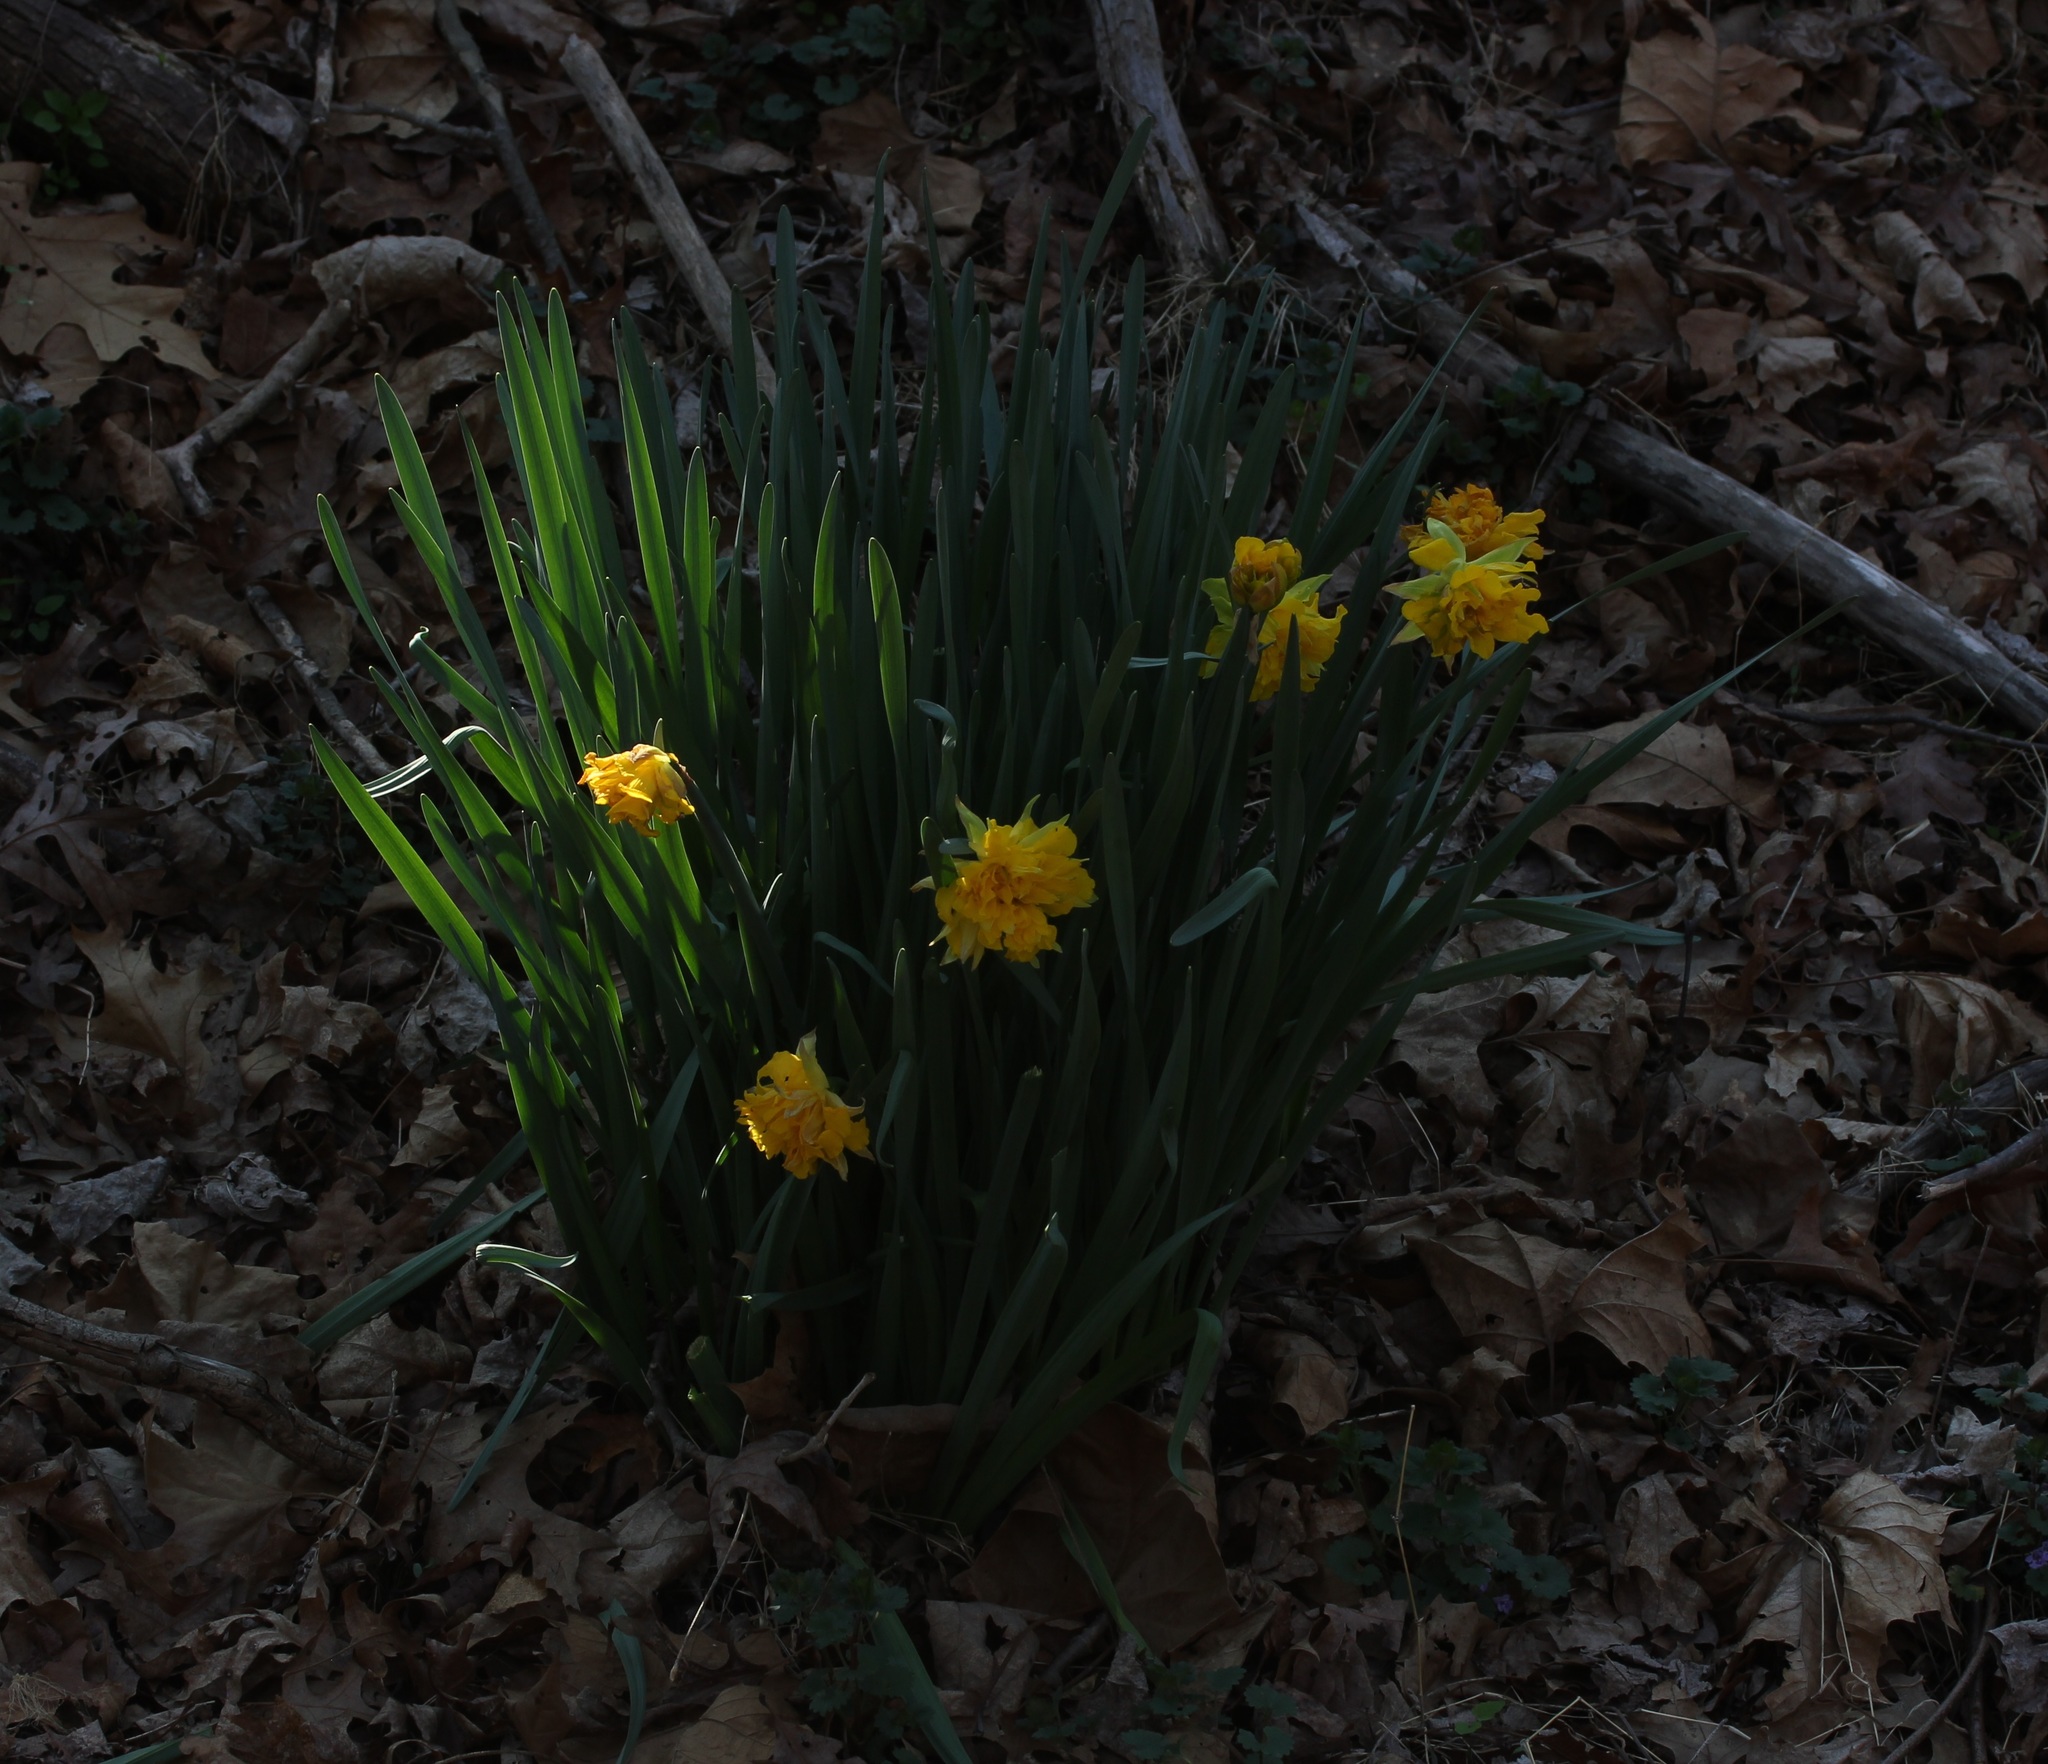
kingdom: Plantae
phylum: Tracheophyta
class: Liliopsida
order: Asparagales
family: Amaryllidaceae
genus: Narcissus
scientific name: Narcissus pseudonarcissus
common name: Daffodil
